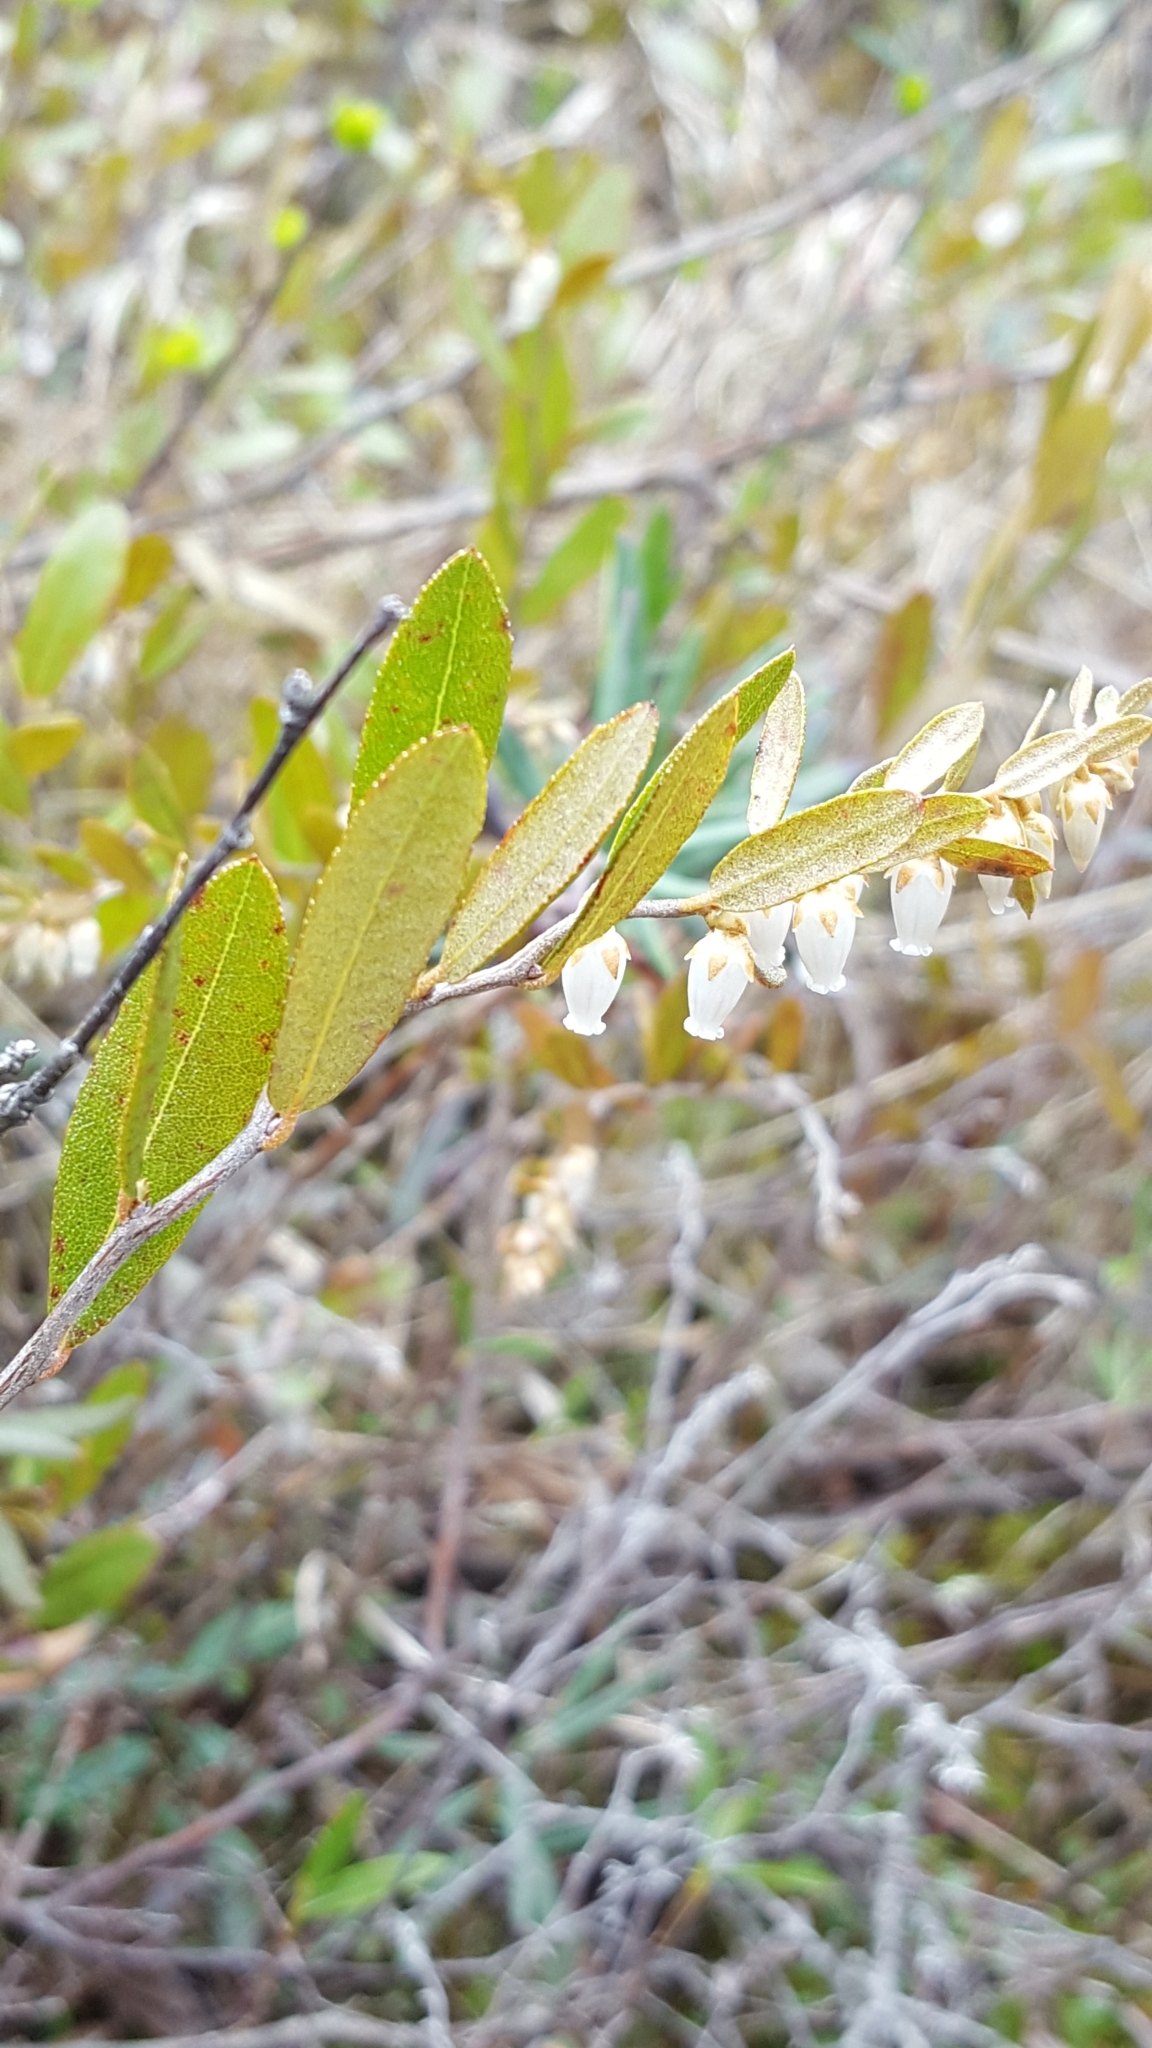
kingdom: Plantae
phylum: Tracheophyta
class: Magnoliopsida
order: Ericales
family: Ericaceae
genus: Chamaedaphne
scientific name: Chamaedaphne calyculata
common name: Leatherleaf
